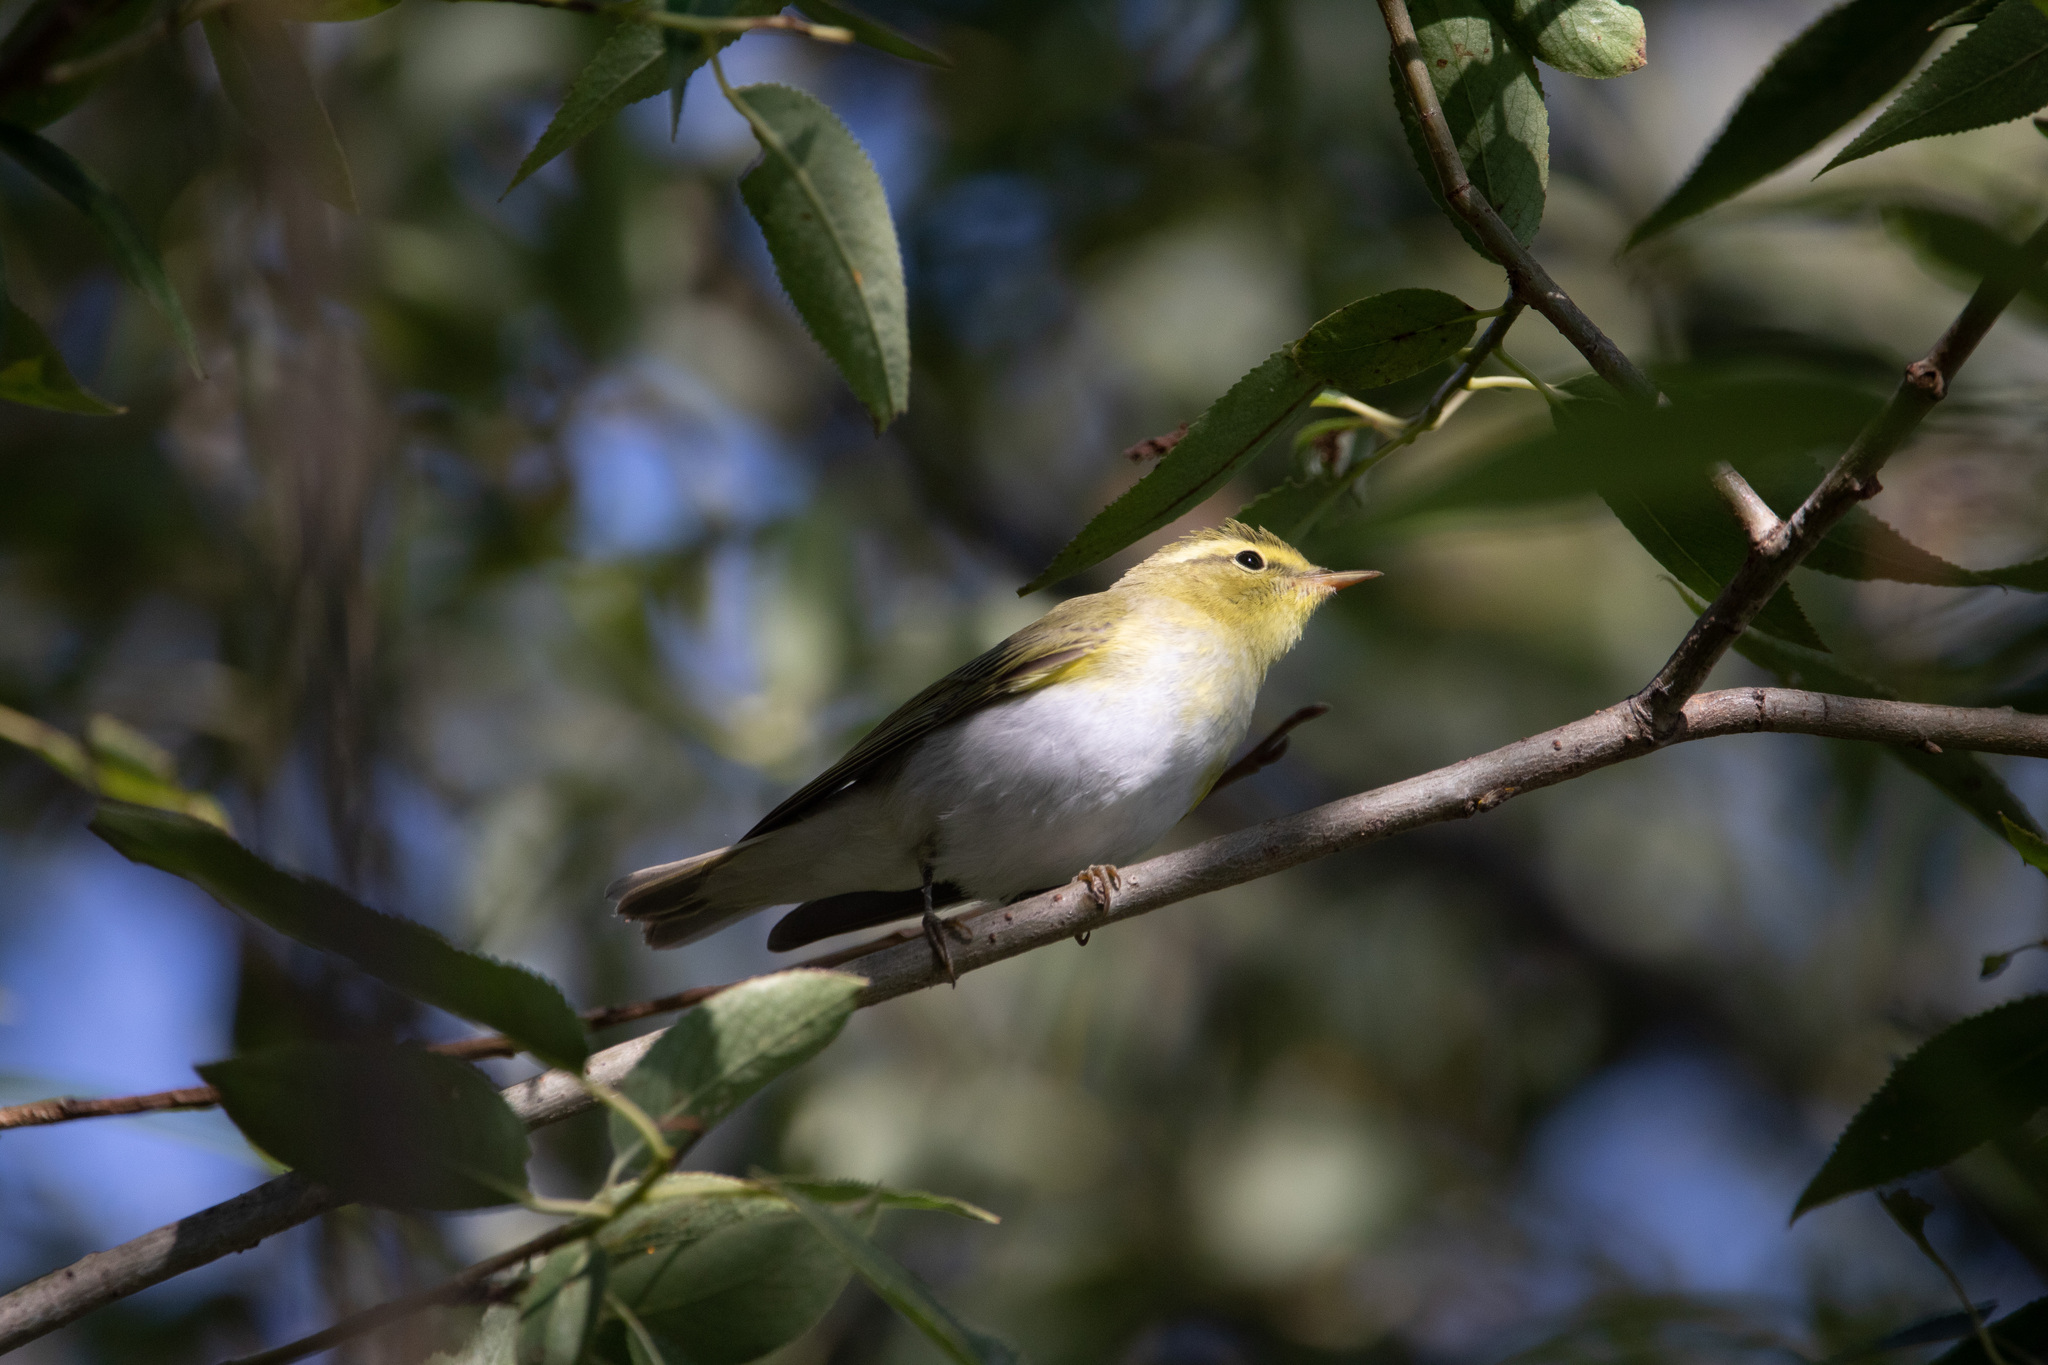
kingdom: Animalia
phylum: Chordata
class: Aves
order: Passeriformes
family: Phylloscopidae
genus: Phylloscopus
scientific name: Phylloscopus sibillatrix
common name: Wood warbler
